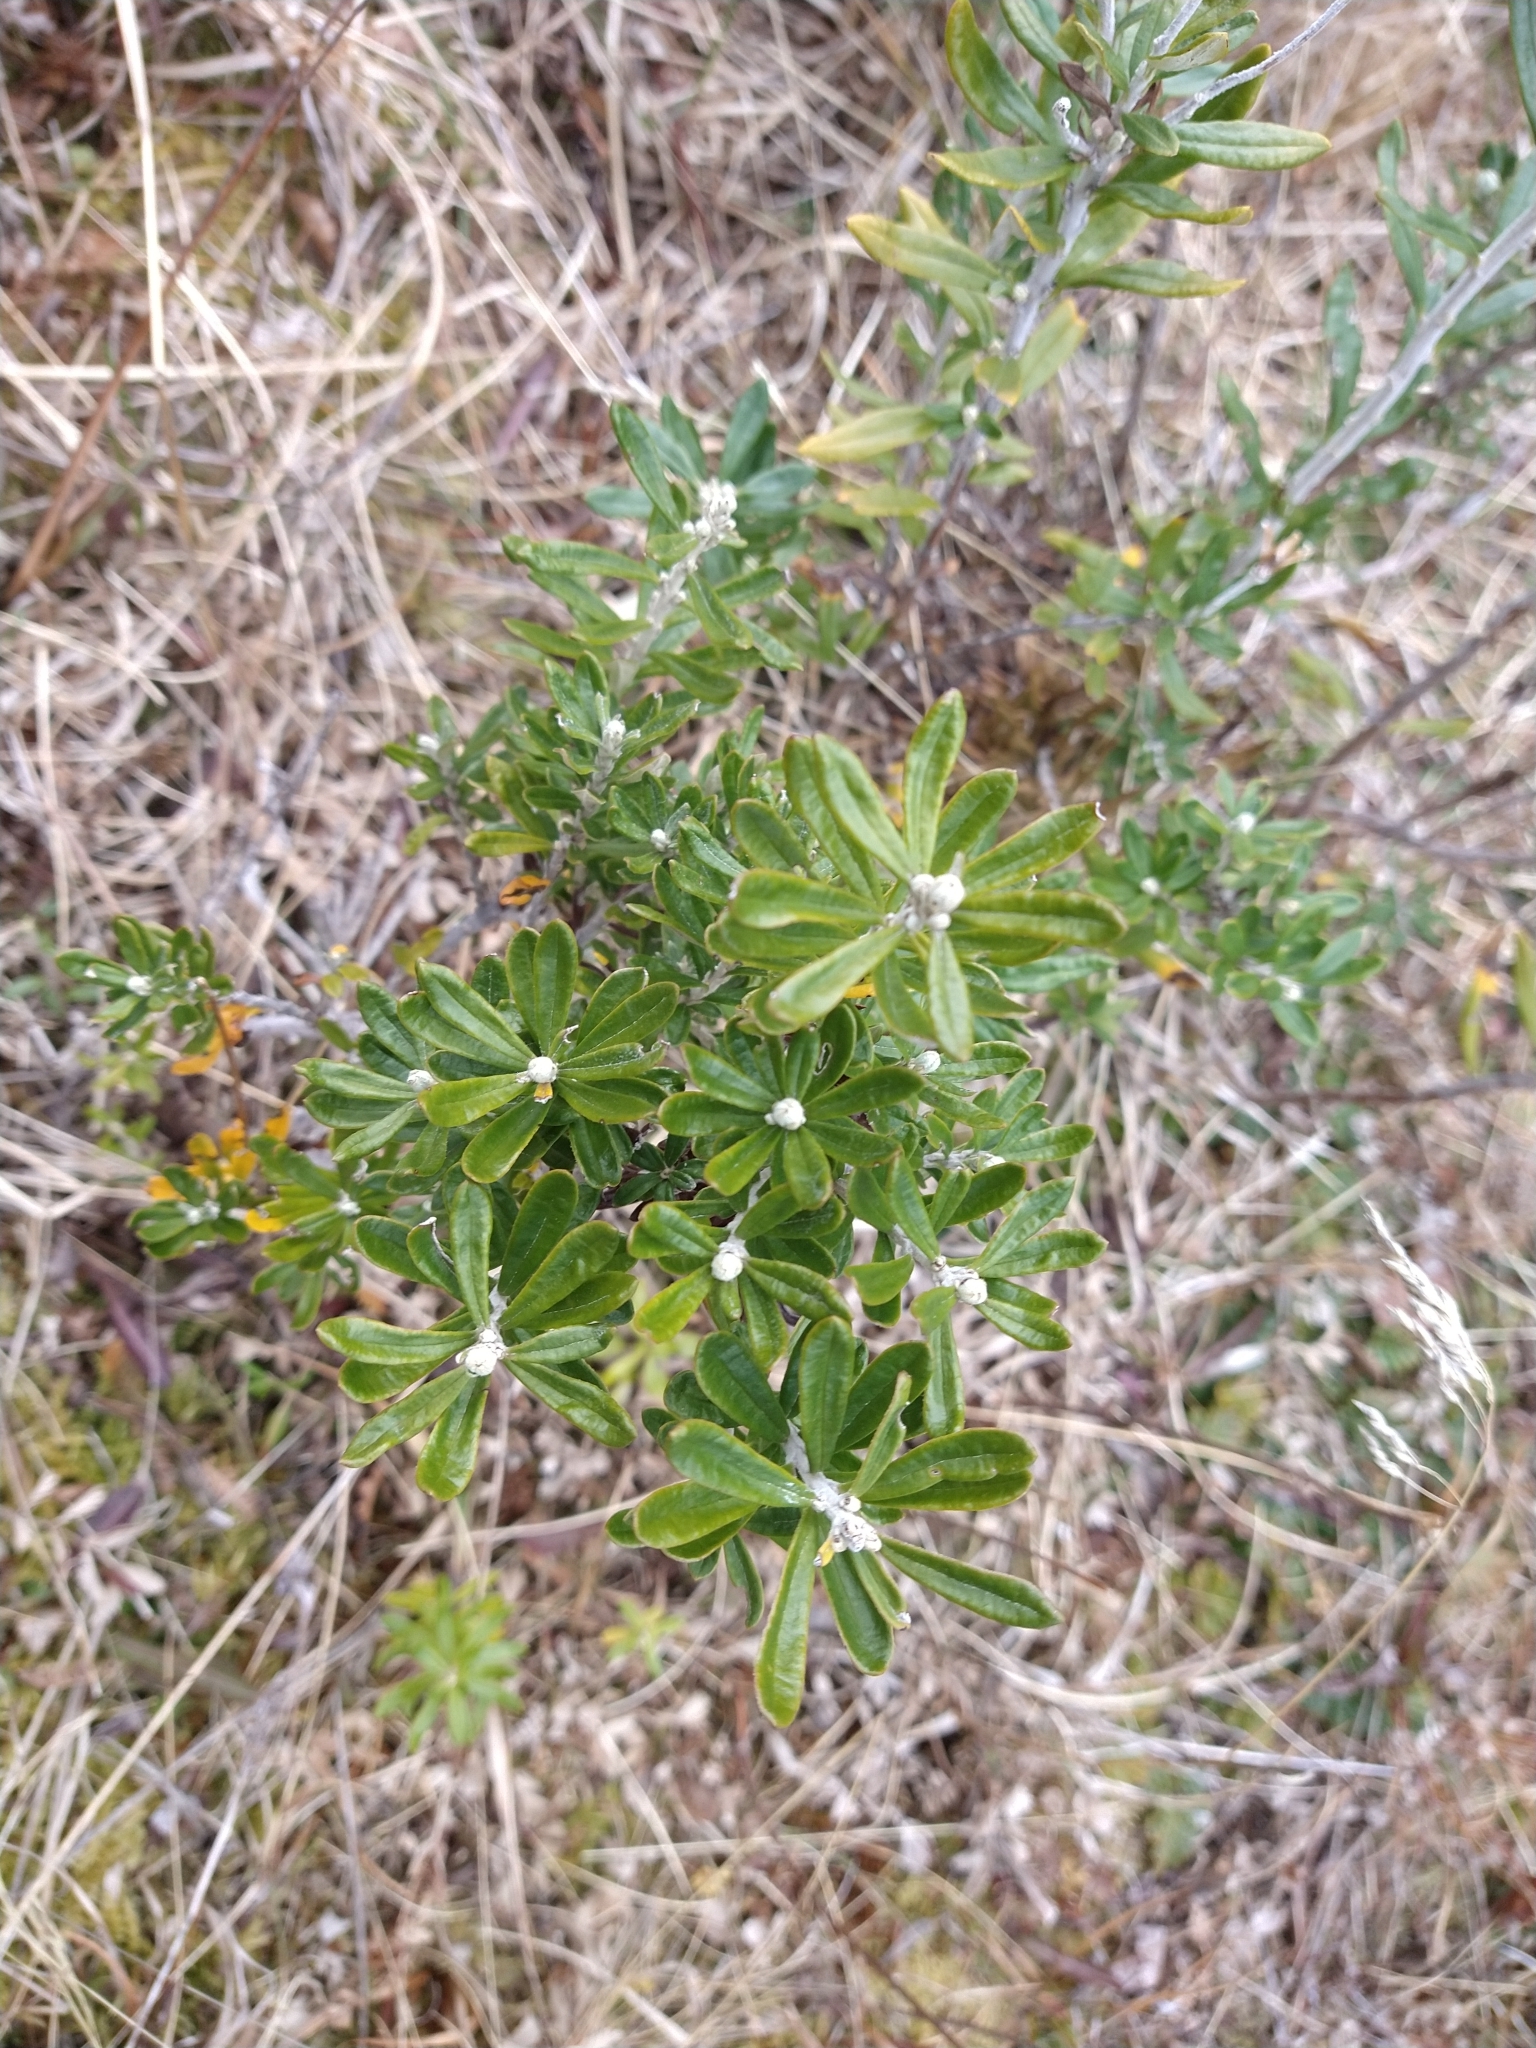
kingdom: Plantae
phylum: Tracheophyta
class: Magnoliopsida
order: Asterales
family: Asteraceae
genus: Chiliotrichum
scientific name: Chiliotrichum diffusum
